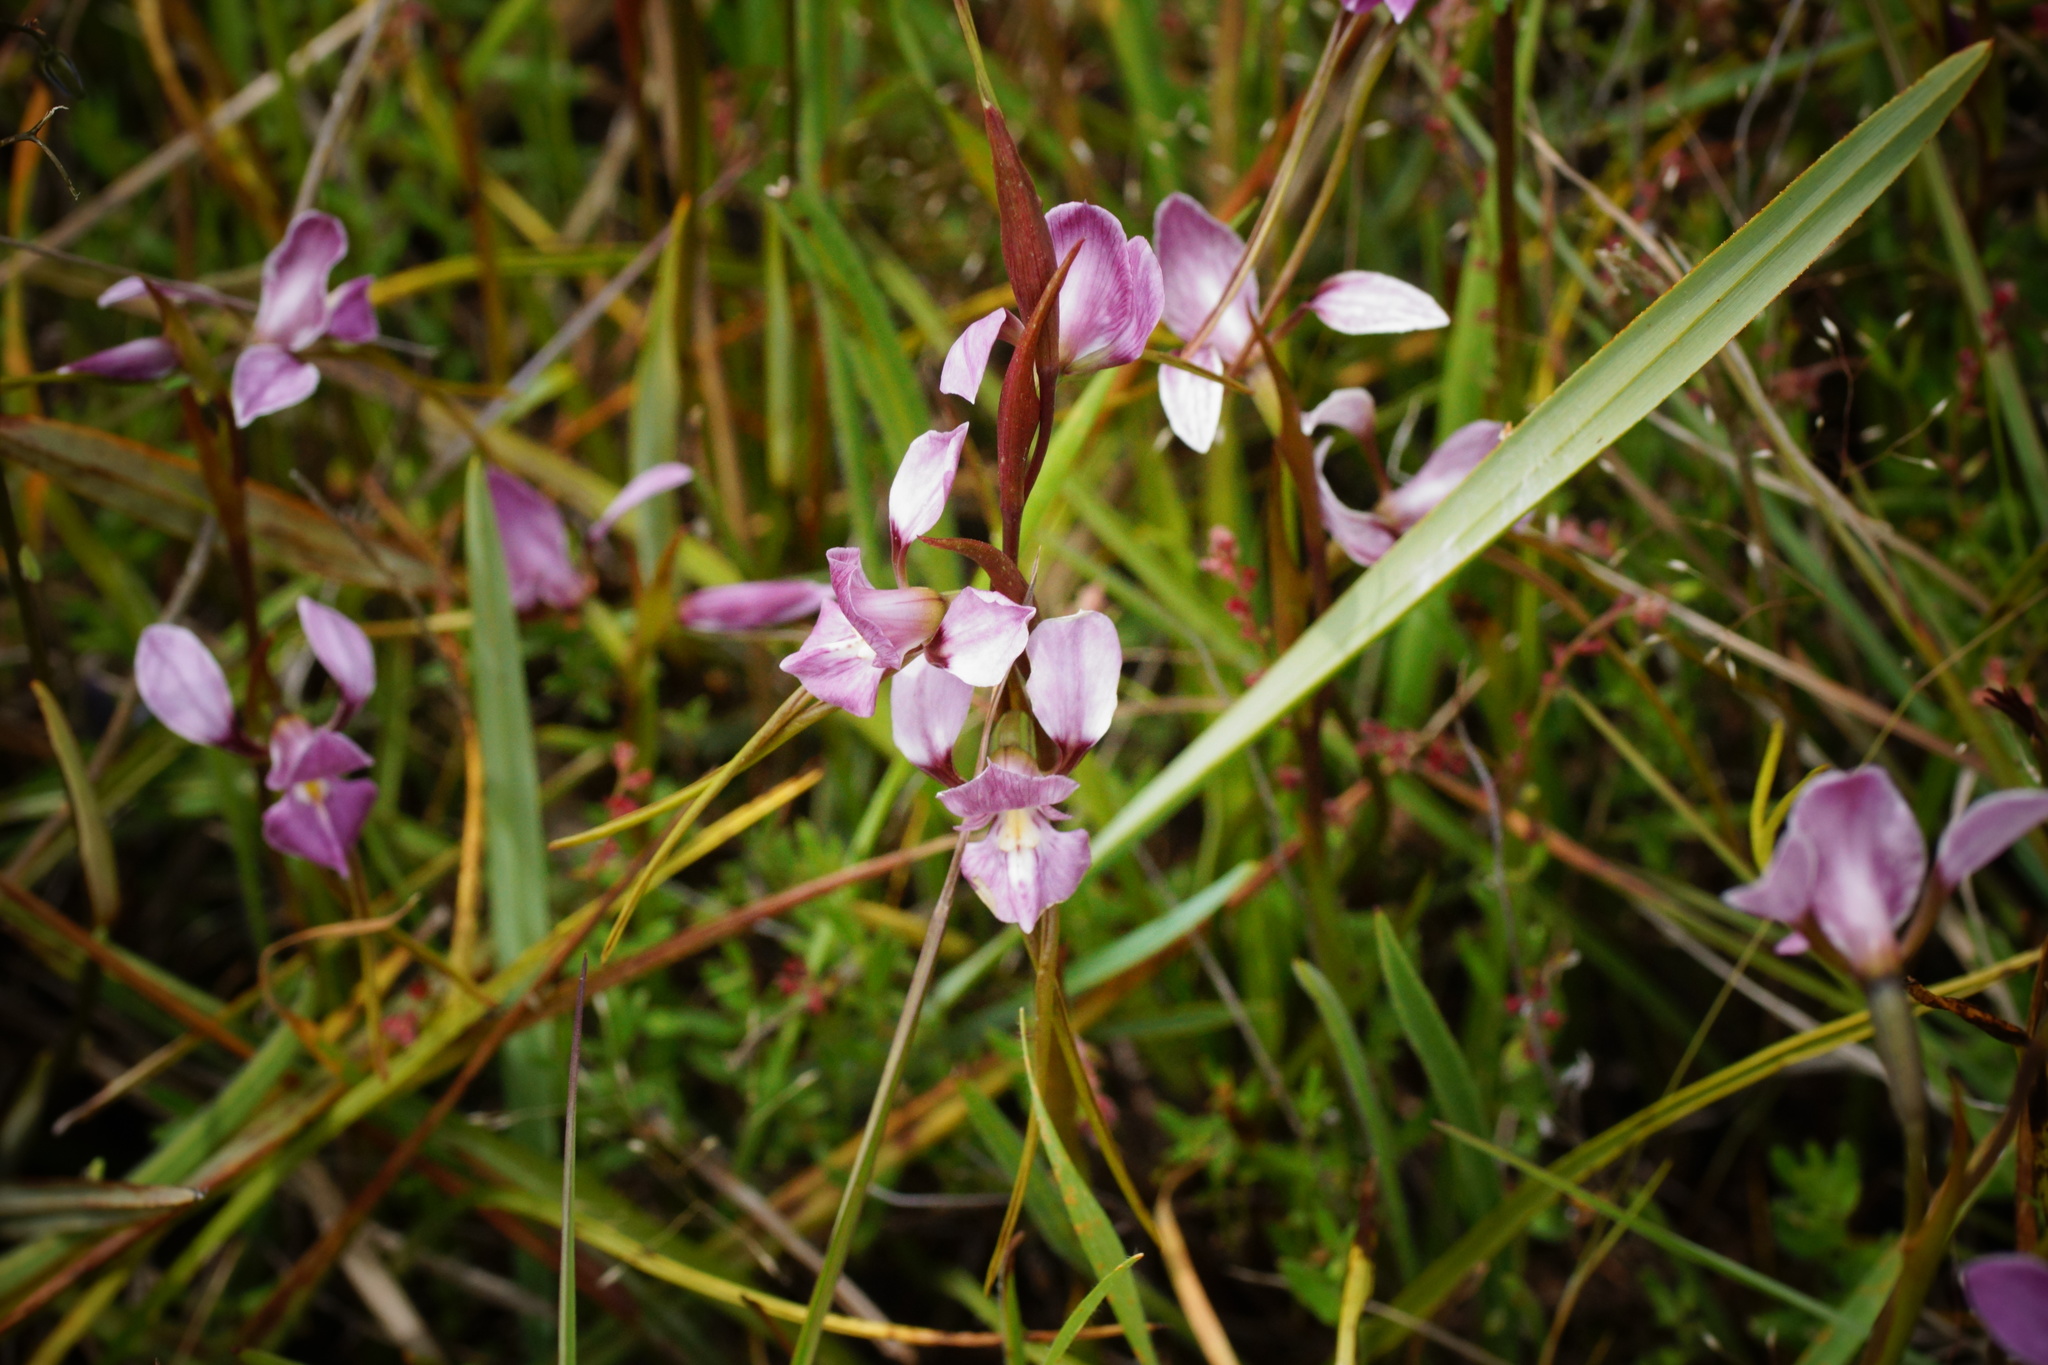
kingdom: Plantae
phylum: Tracheophyta
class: Liliopsida
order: Asparagales
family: Orchidaceae
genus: Diuris
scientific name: Diuris punctata
